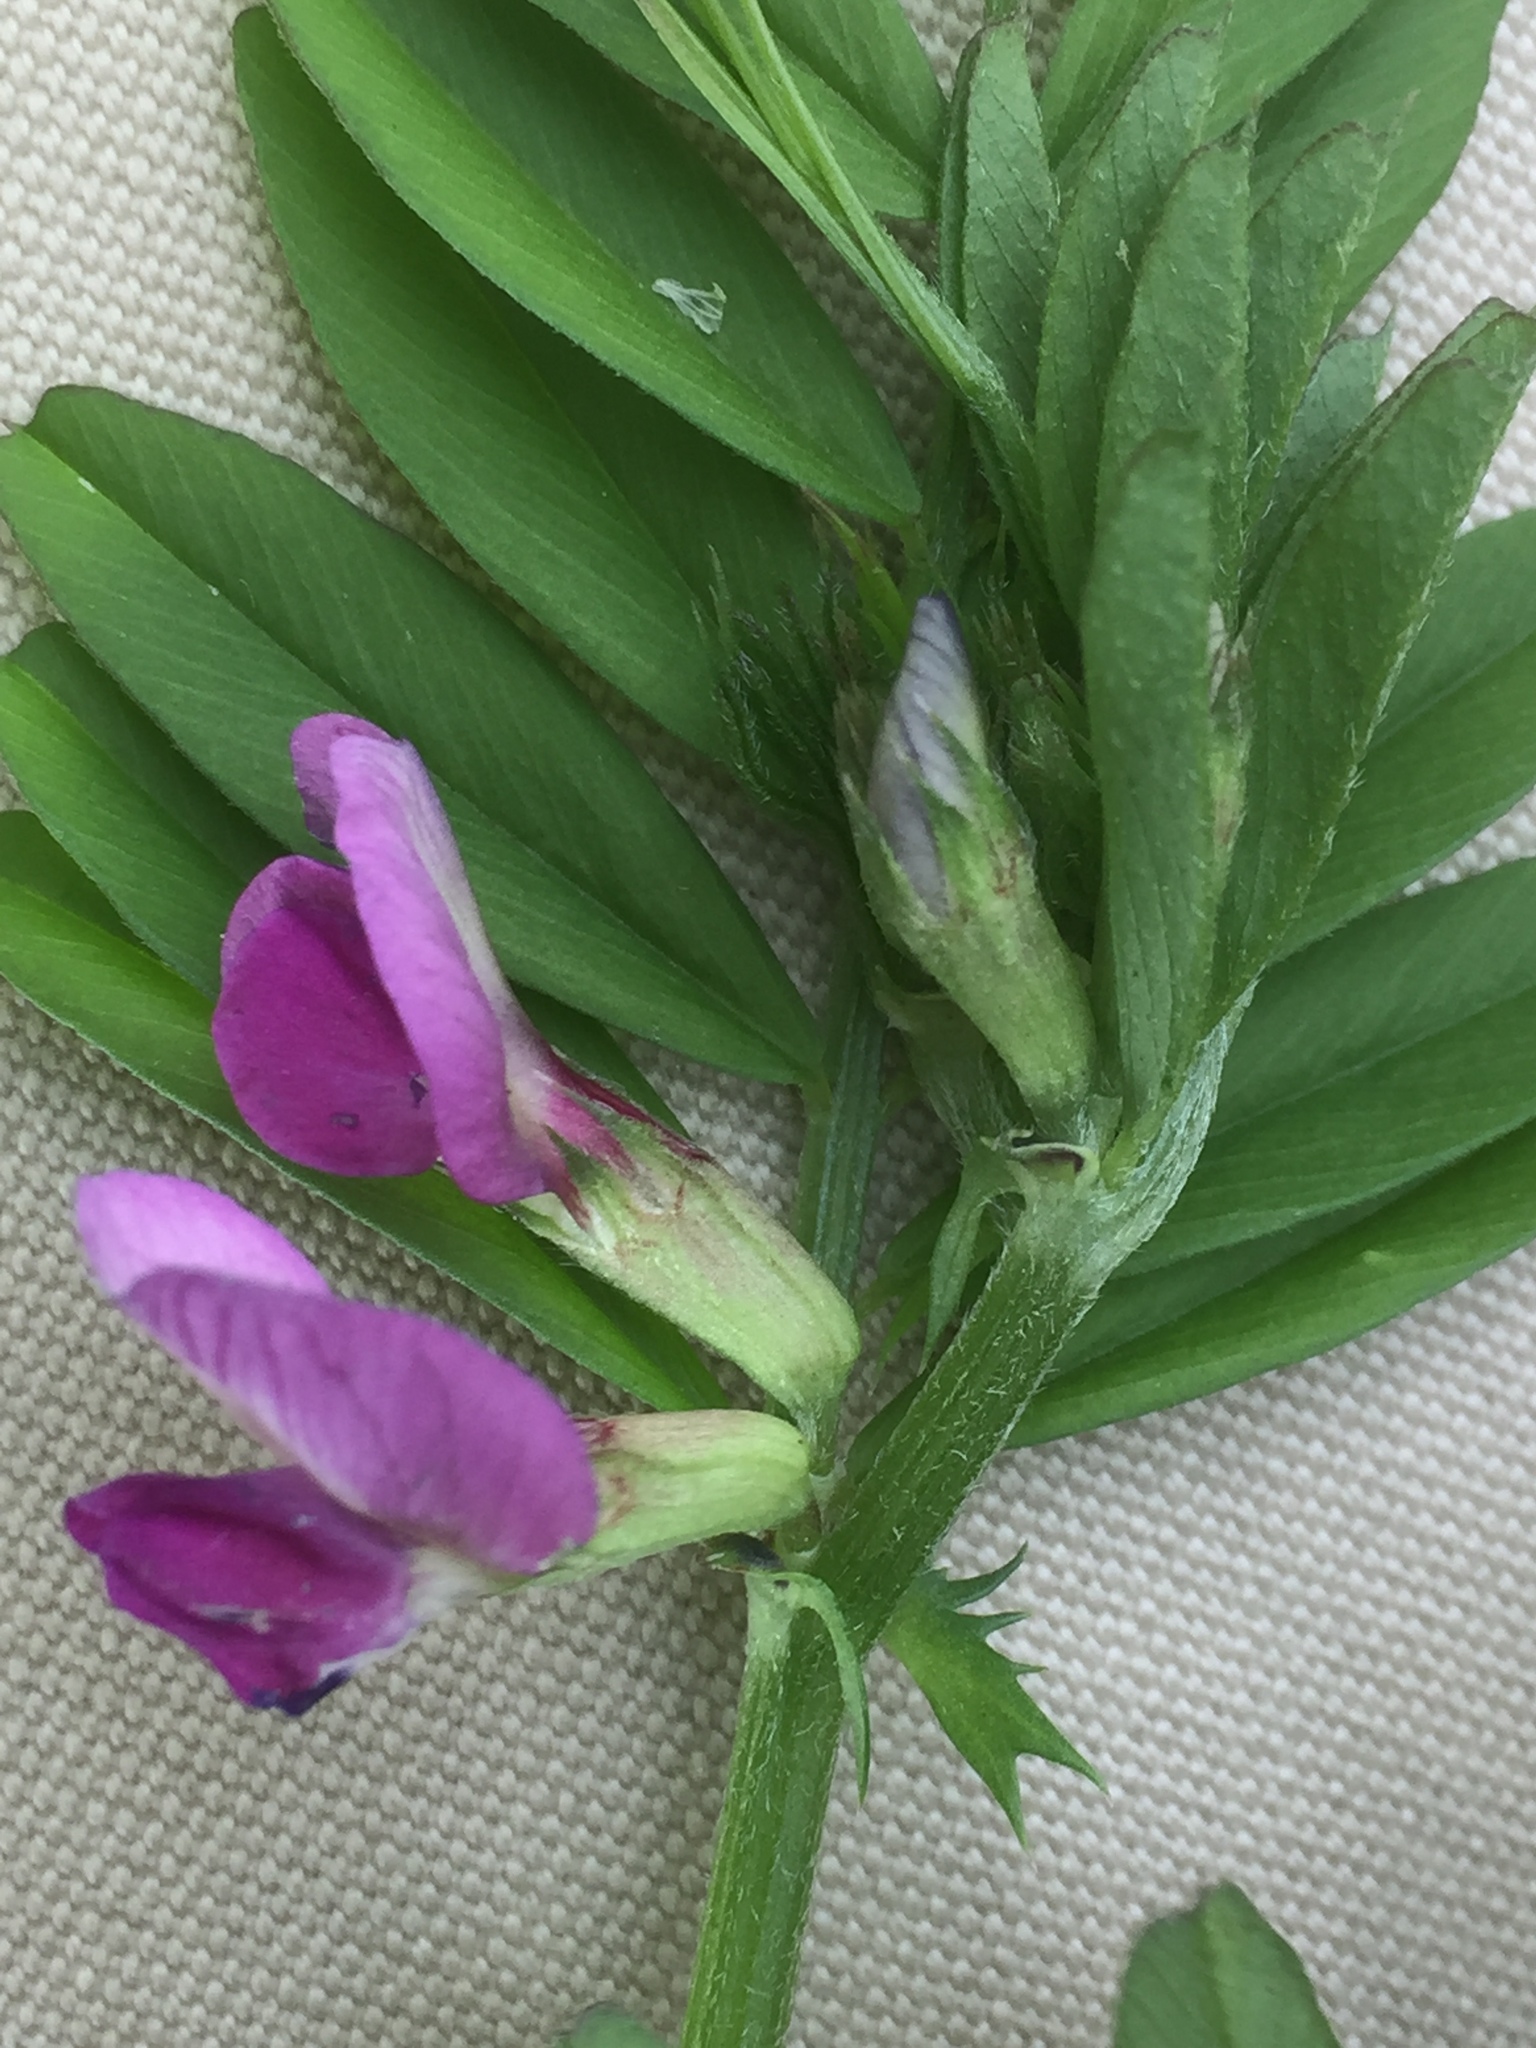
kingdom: Plantae
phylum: Tracheophyta
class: Magnoliopsida
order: Fabales
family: Fabaceae
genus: Vicia
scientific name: Vicia sativa
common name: Garden vetch
